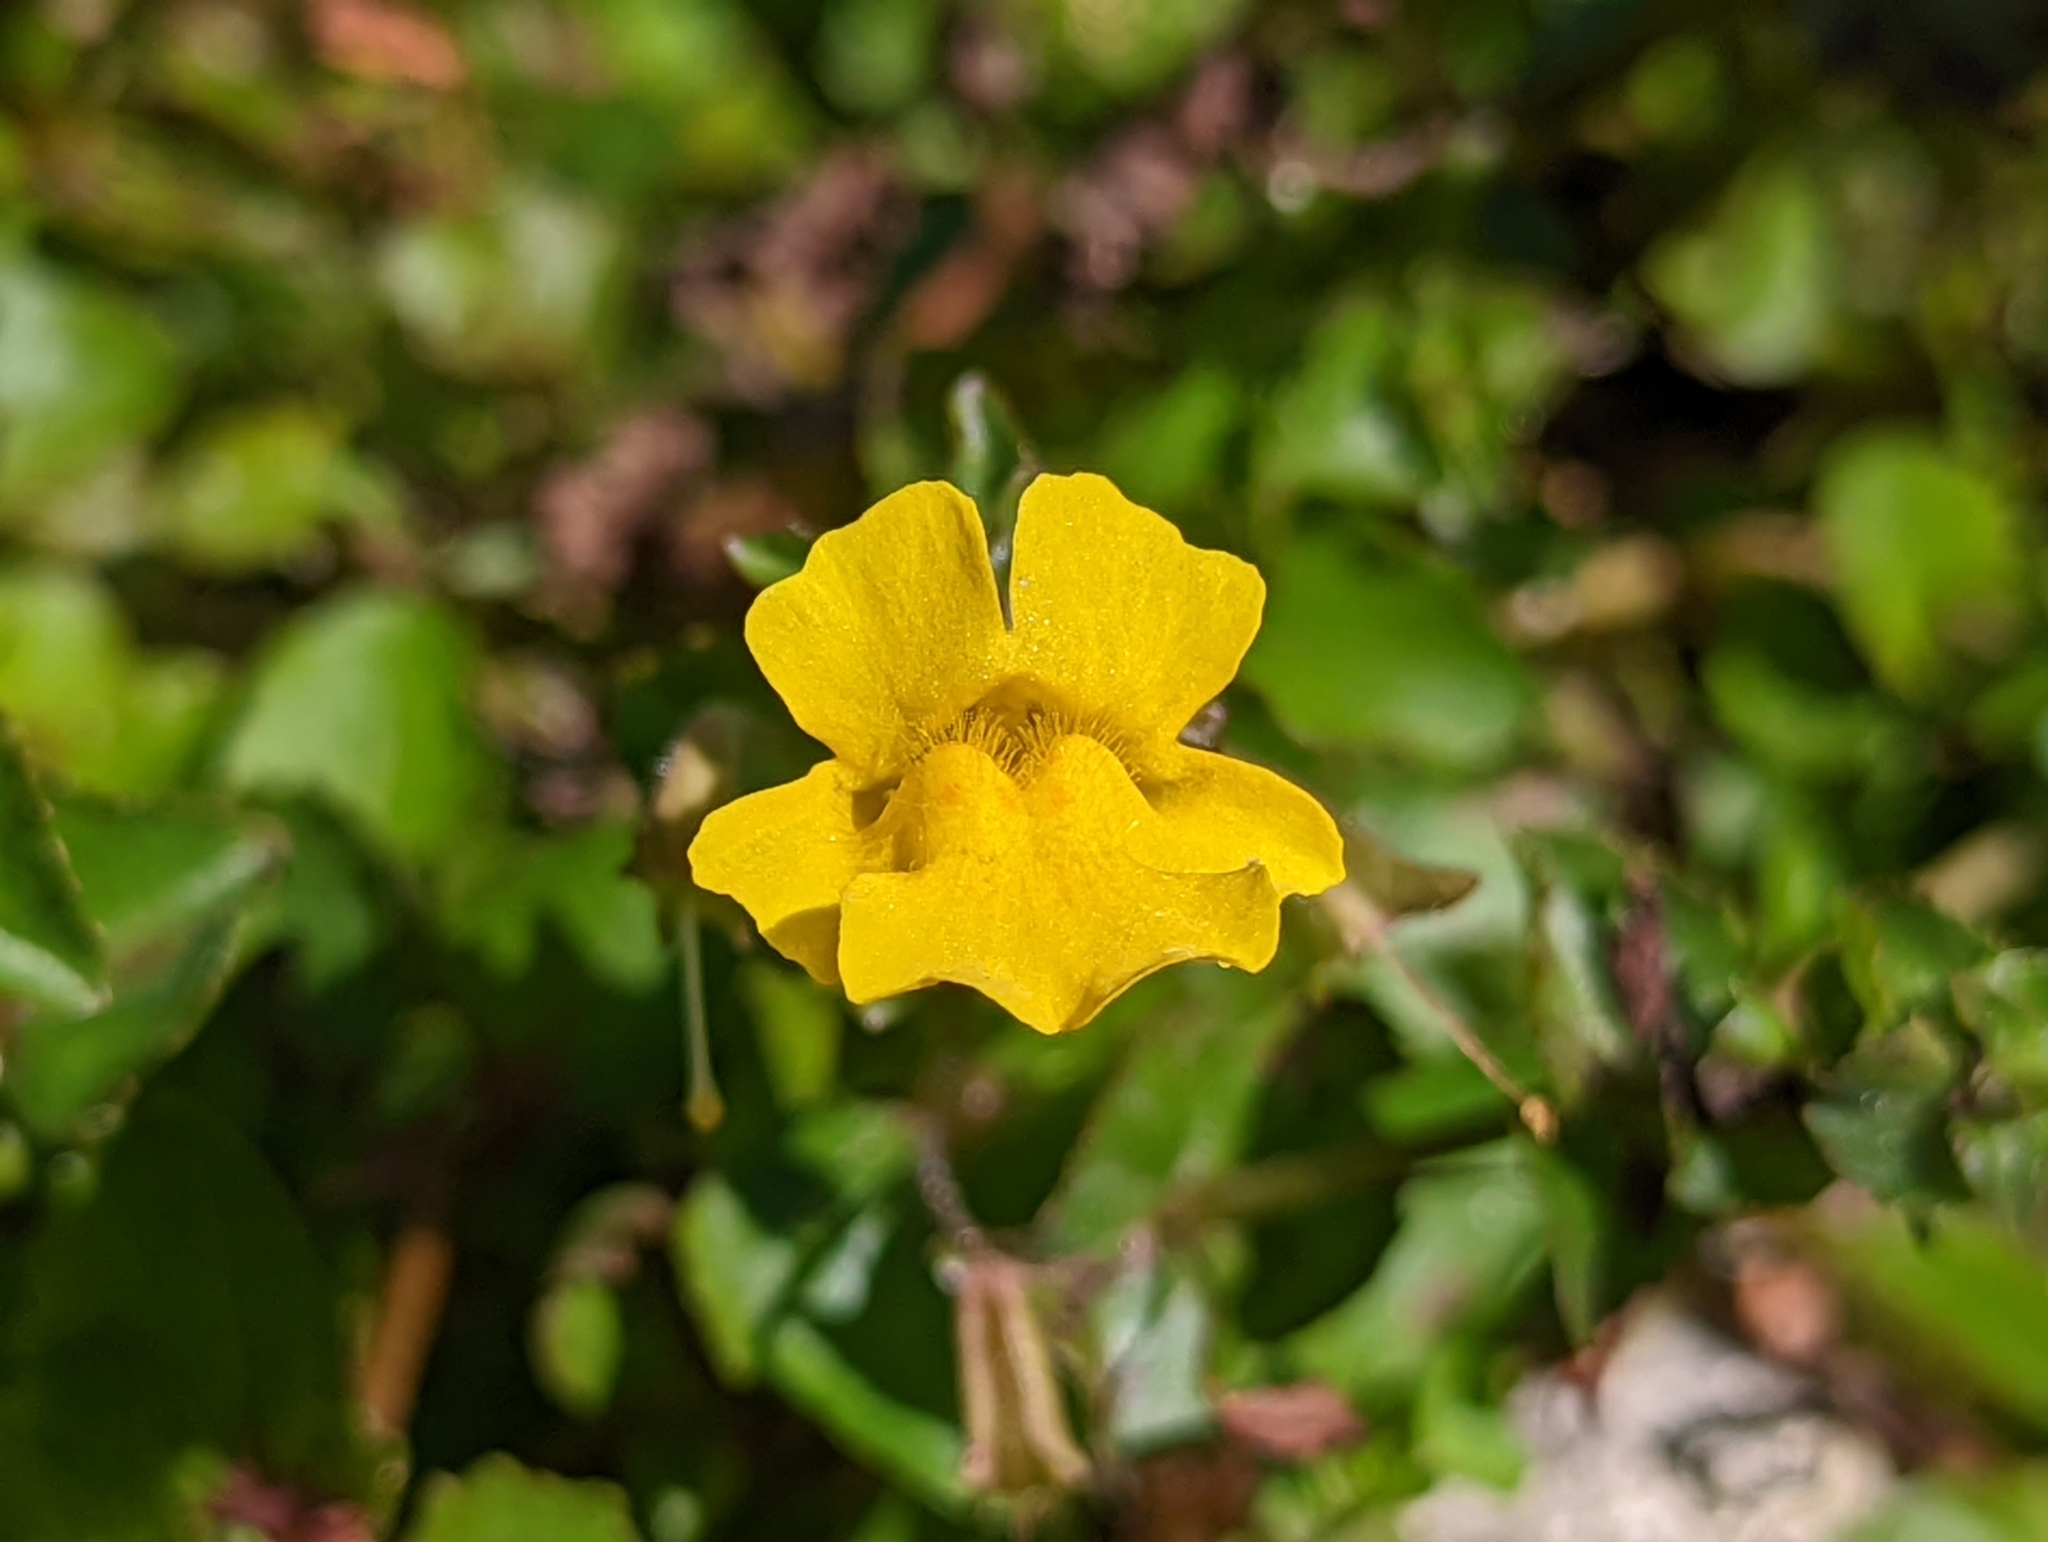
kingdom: Plantae
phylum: Tracheophyta
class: Magnoliopsida
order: Lamiales
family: Phrymaceae
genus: Erythranthe
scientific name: Erythranthe michiganensis
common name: Michigan monkey-flower
